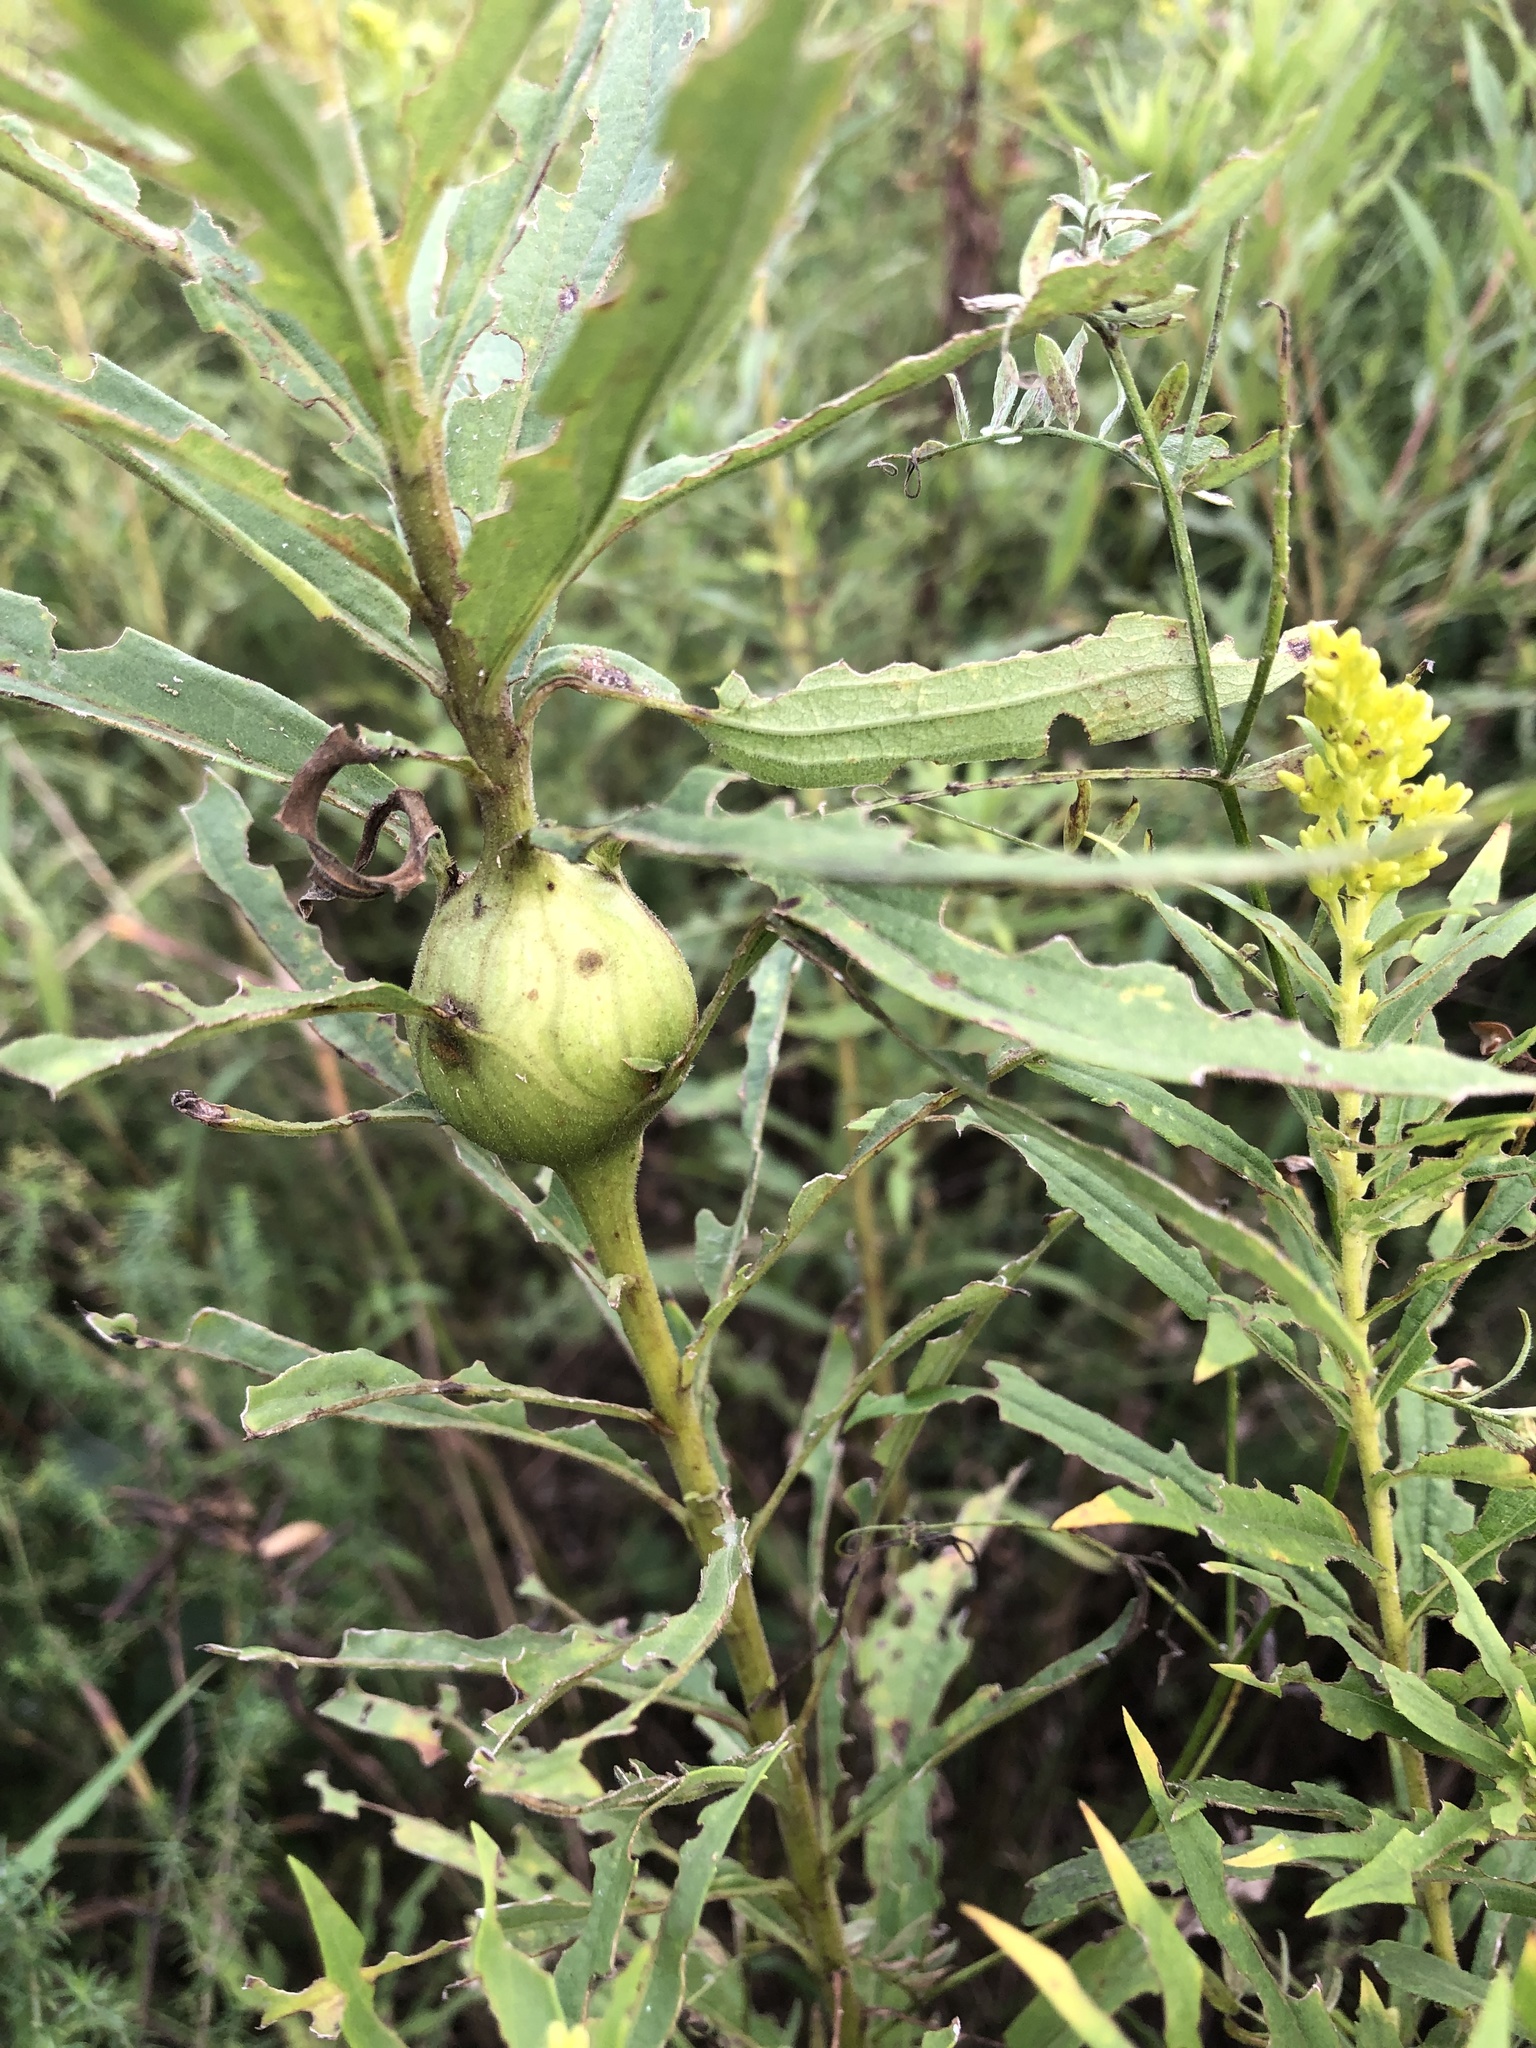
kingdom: Animalia
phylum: Arthropoda
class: Insecta
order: Diptera
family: Tephritidae
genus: Eurosta
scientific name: Eurosta solidaginis
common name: Goldenrod gall fly
